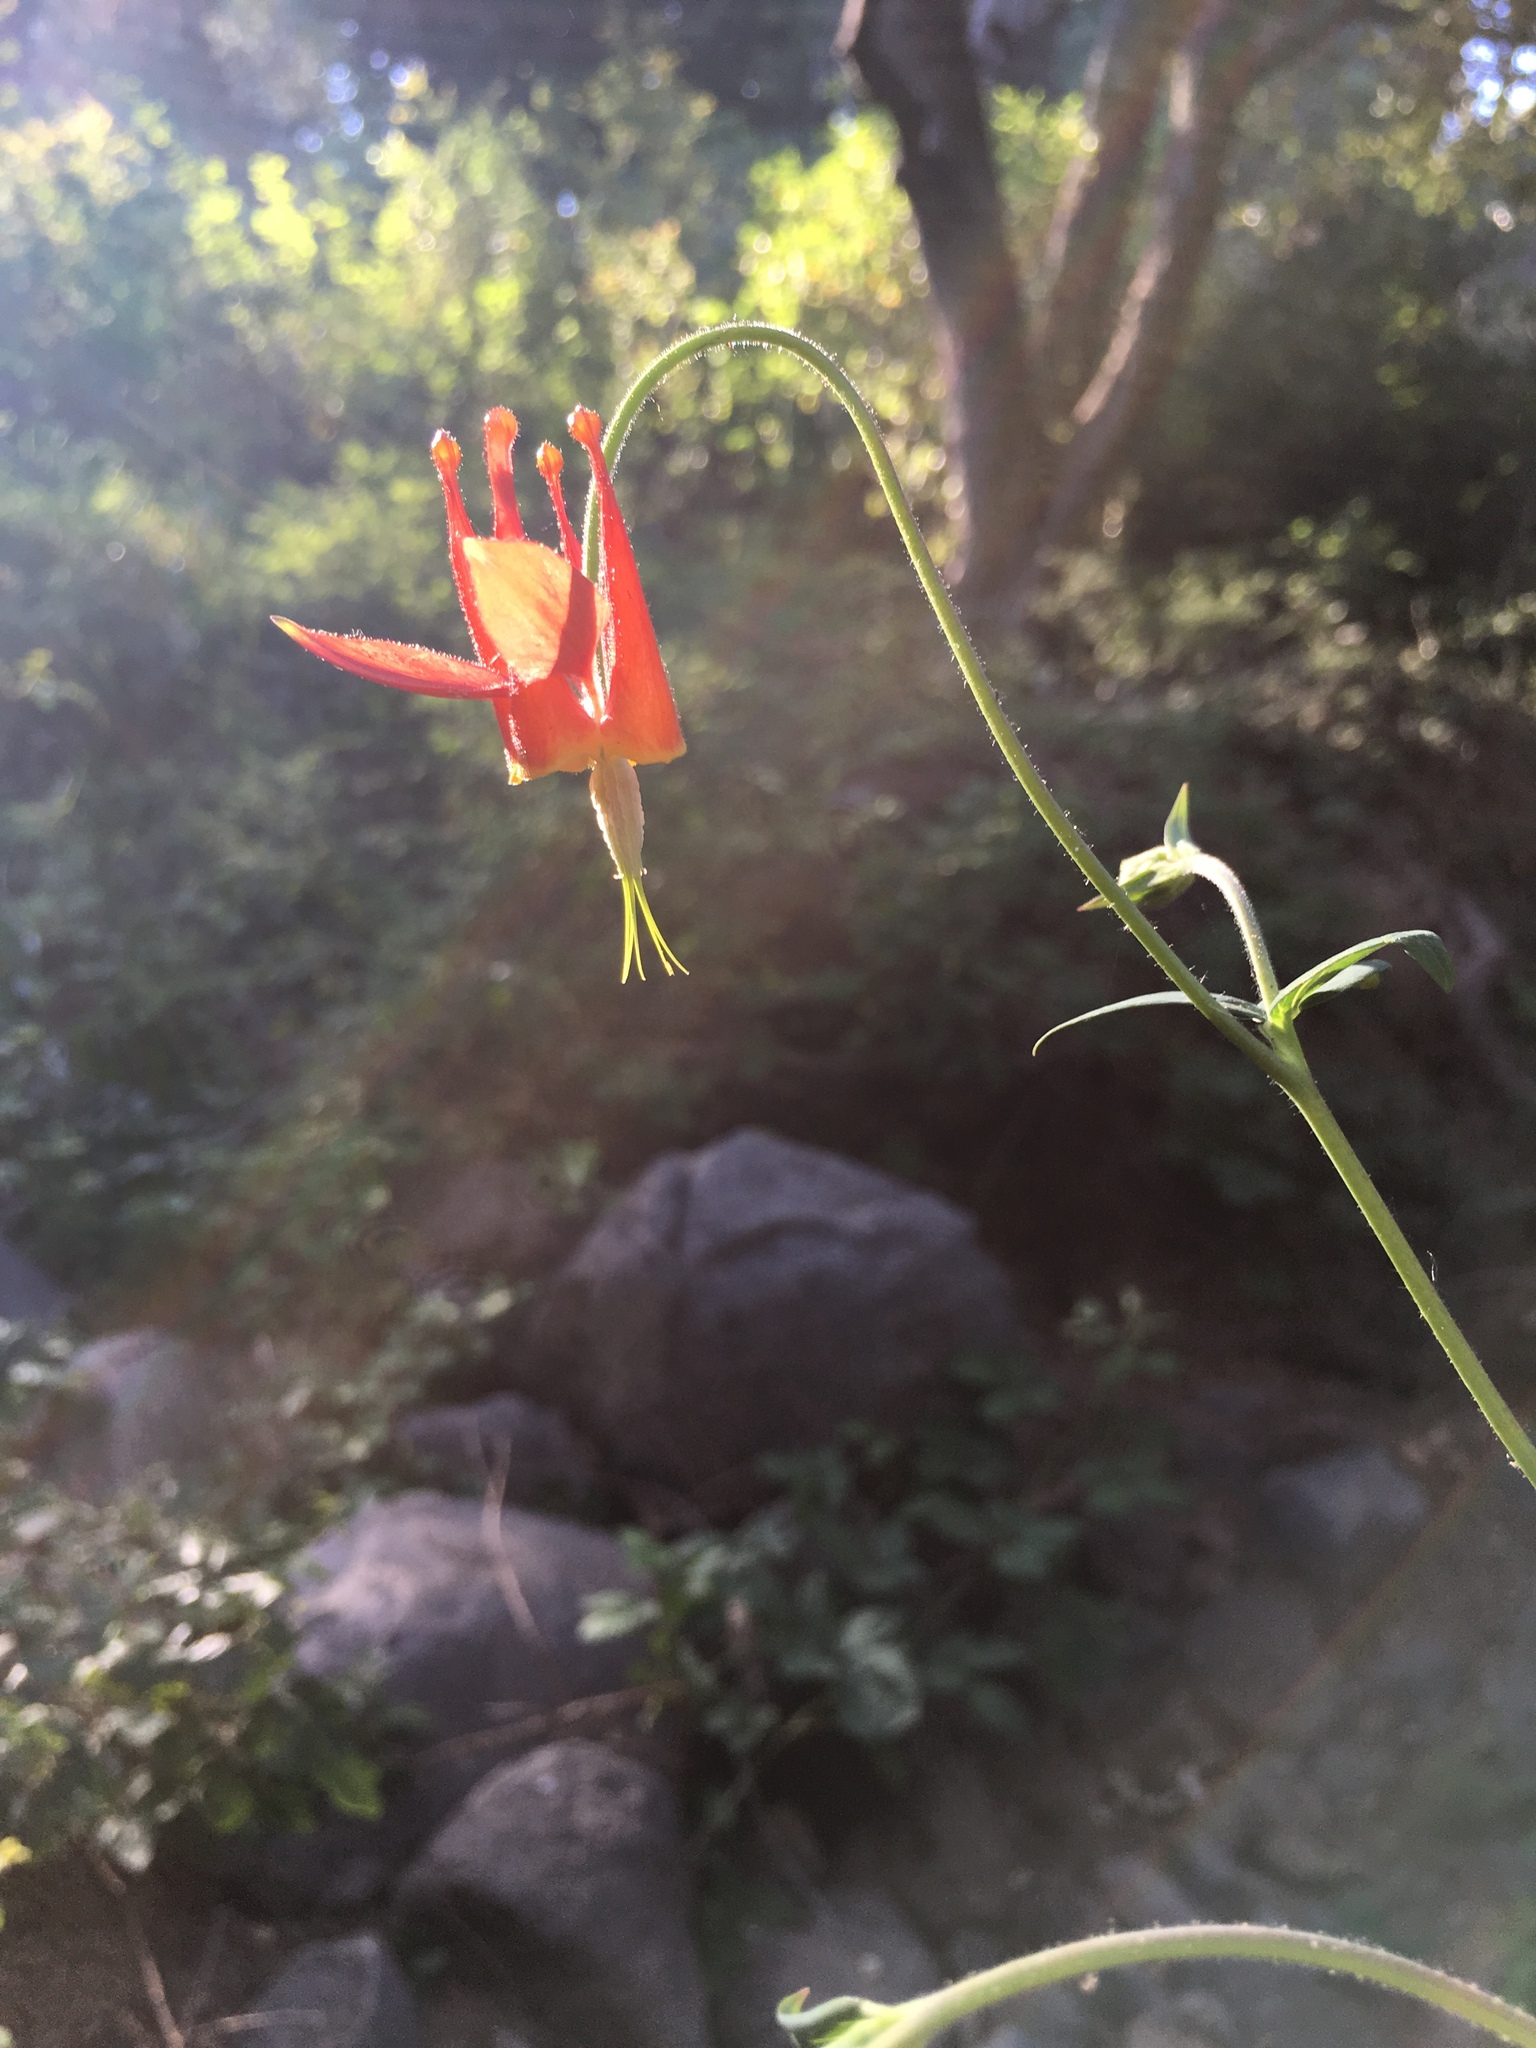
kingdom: Plantae
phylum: Tracheophyta
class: Magnoliopsida
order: Ranunculales
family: Ranunculaceae
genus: Aquilegia
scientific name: Aquilegia formosa
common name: Sitka columbine
